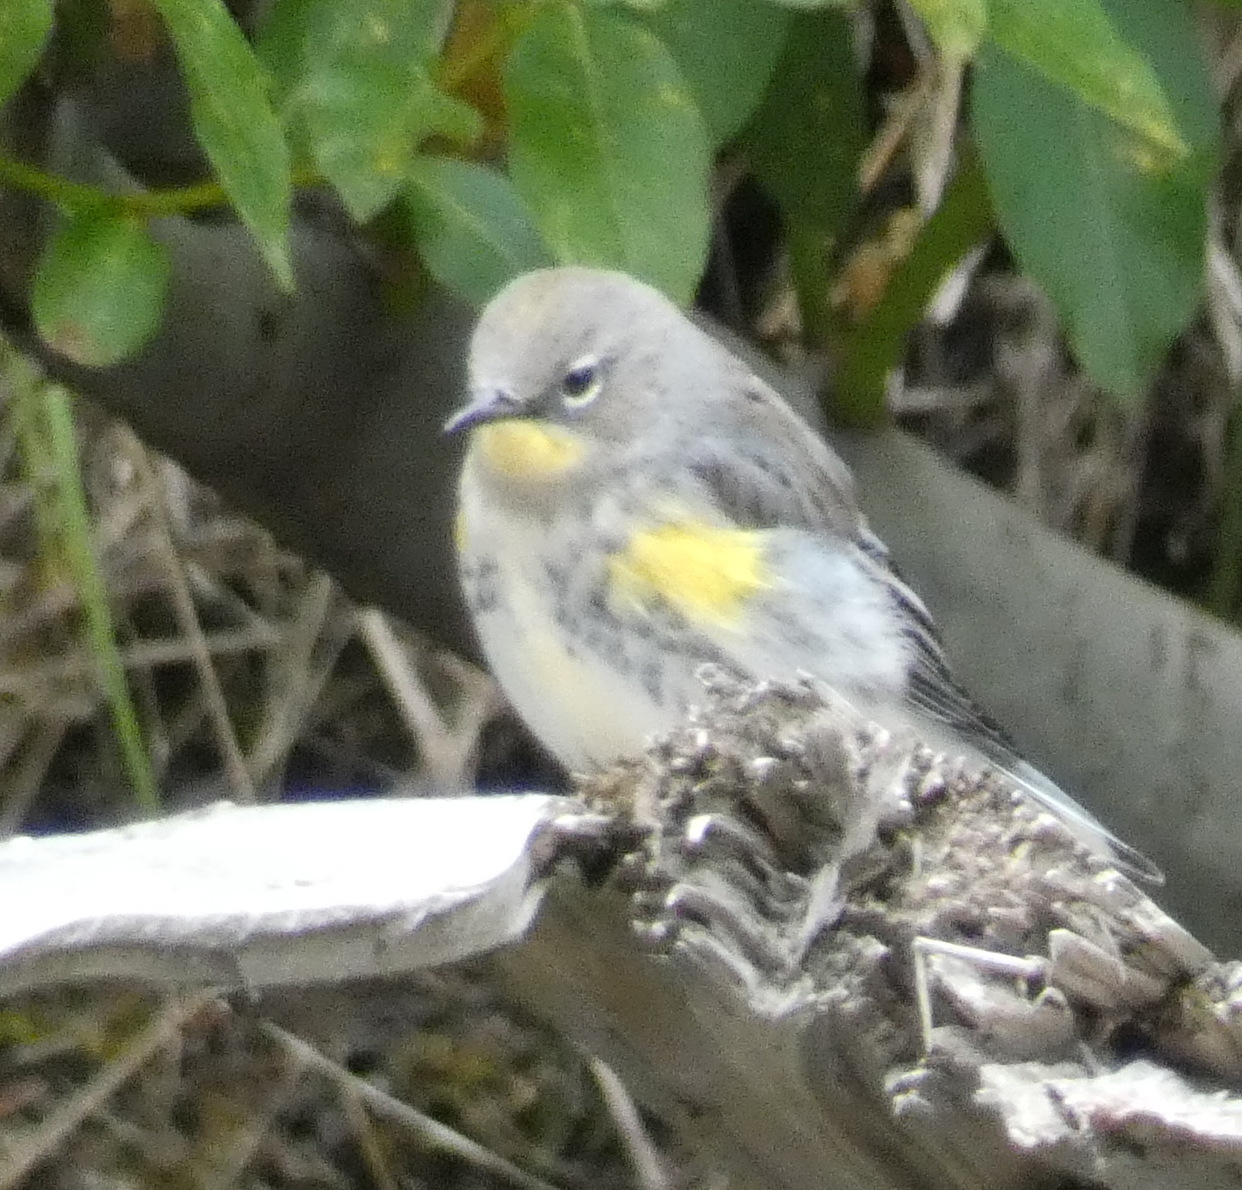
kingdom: Animalia
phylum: Chordata
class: Aves
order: Passeriformes
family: Parulidae
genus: Setophaga
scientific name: Setophaga coronata
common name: Myrtle warbler
